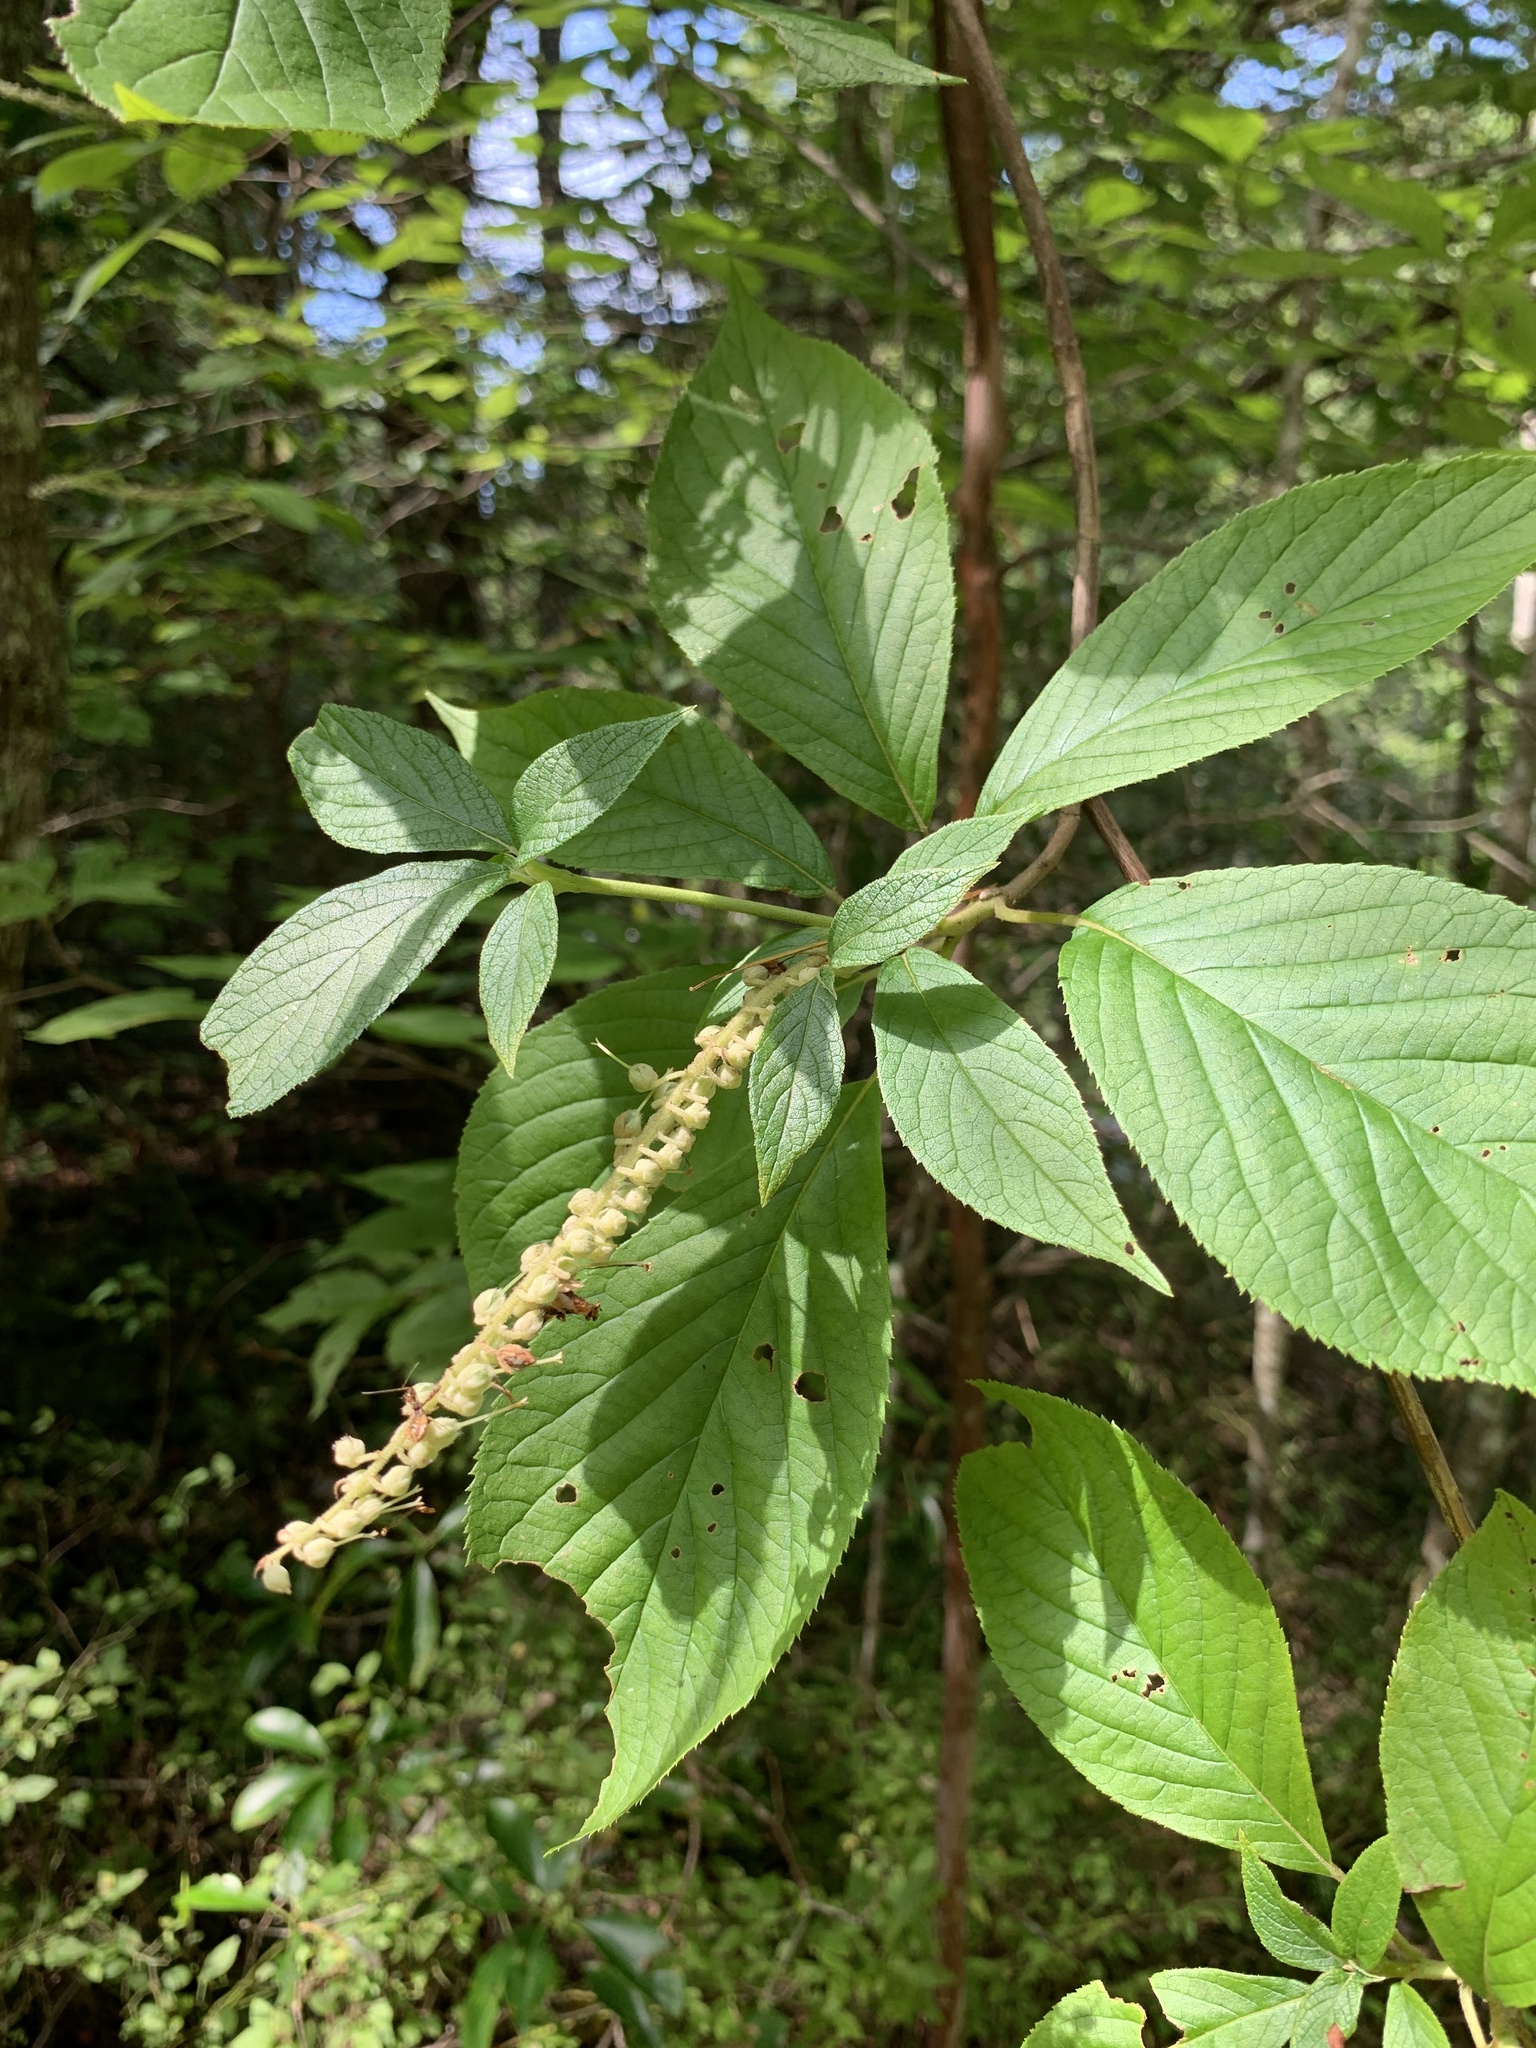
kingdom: Plantae
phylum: Tracheophyta
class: Magnoliopsida
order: Ericales
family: Clethraceae
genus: Clethra
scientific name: Clethra acuminata
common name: Mountain sweet pepperbush
